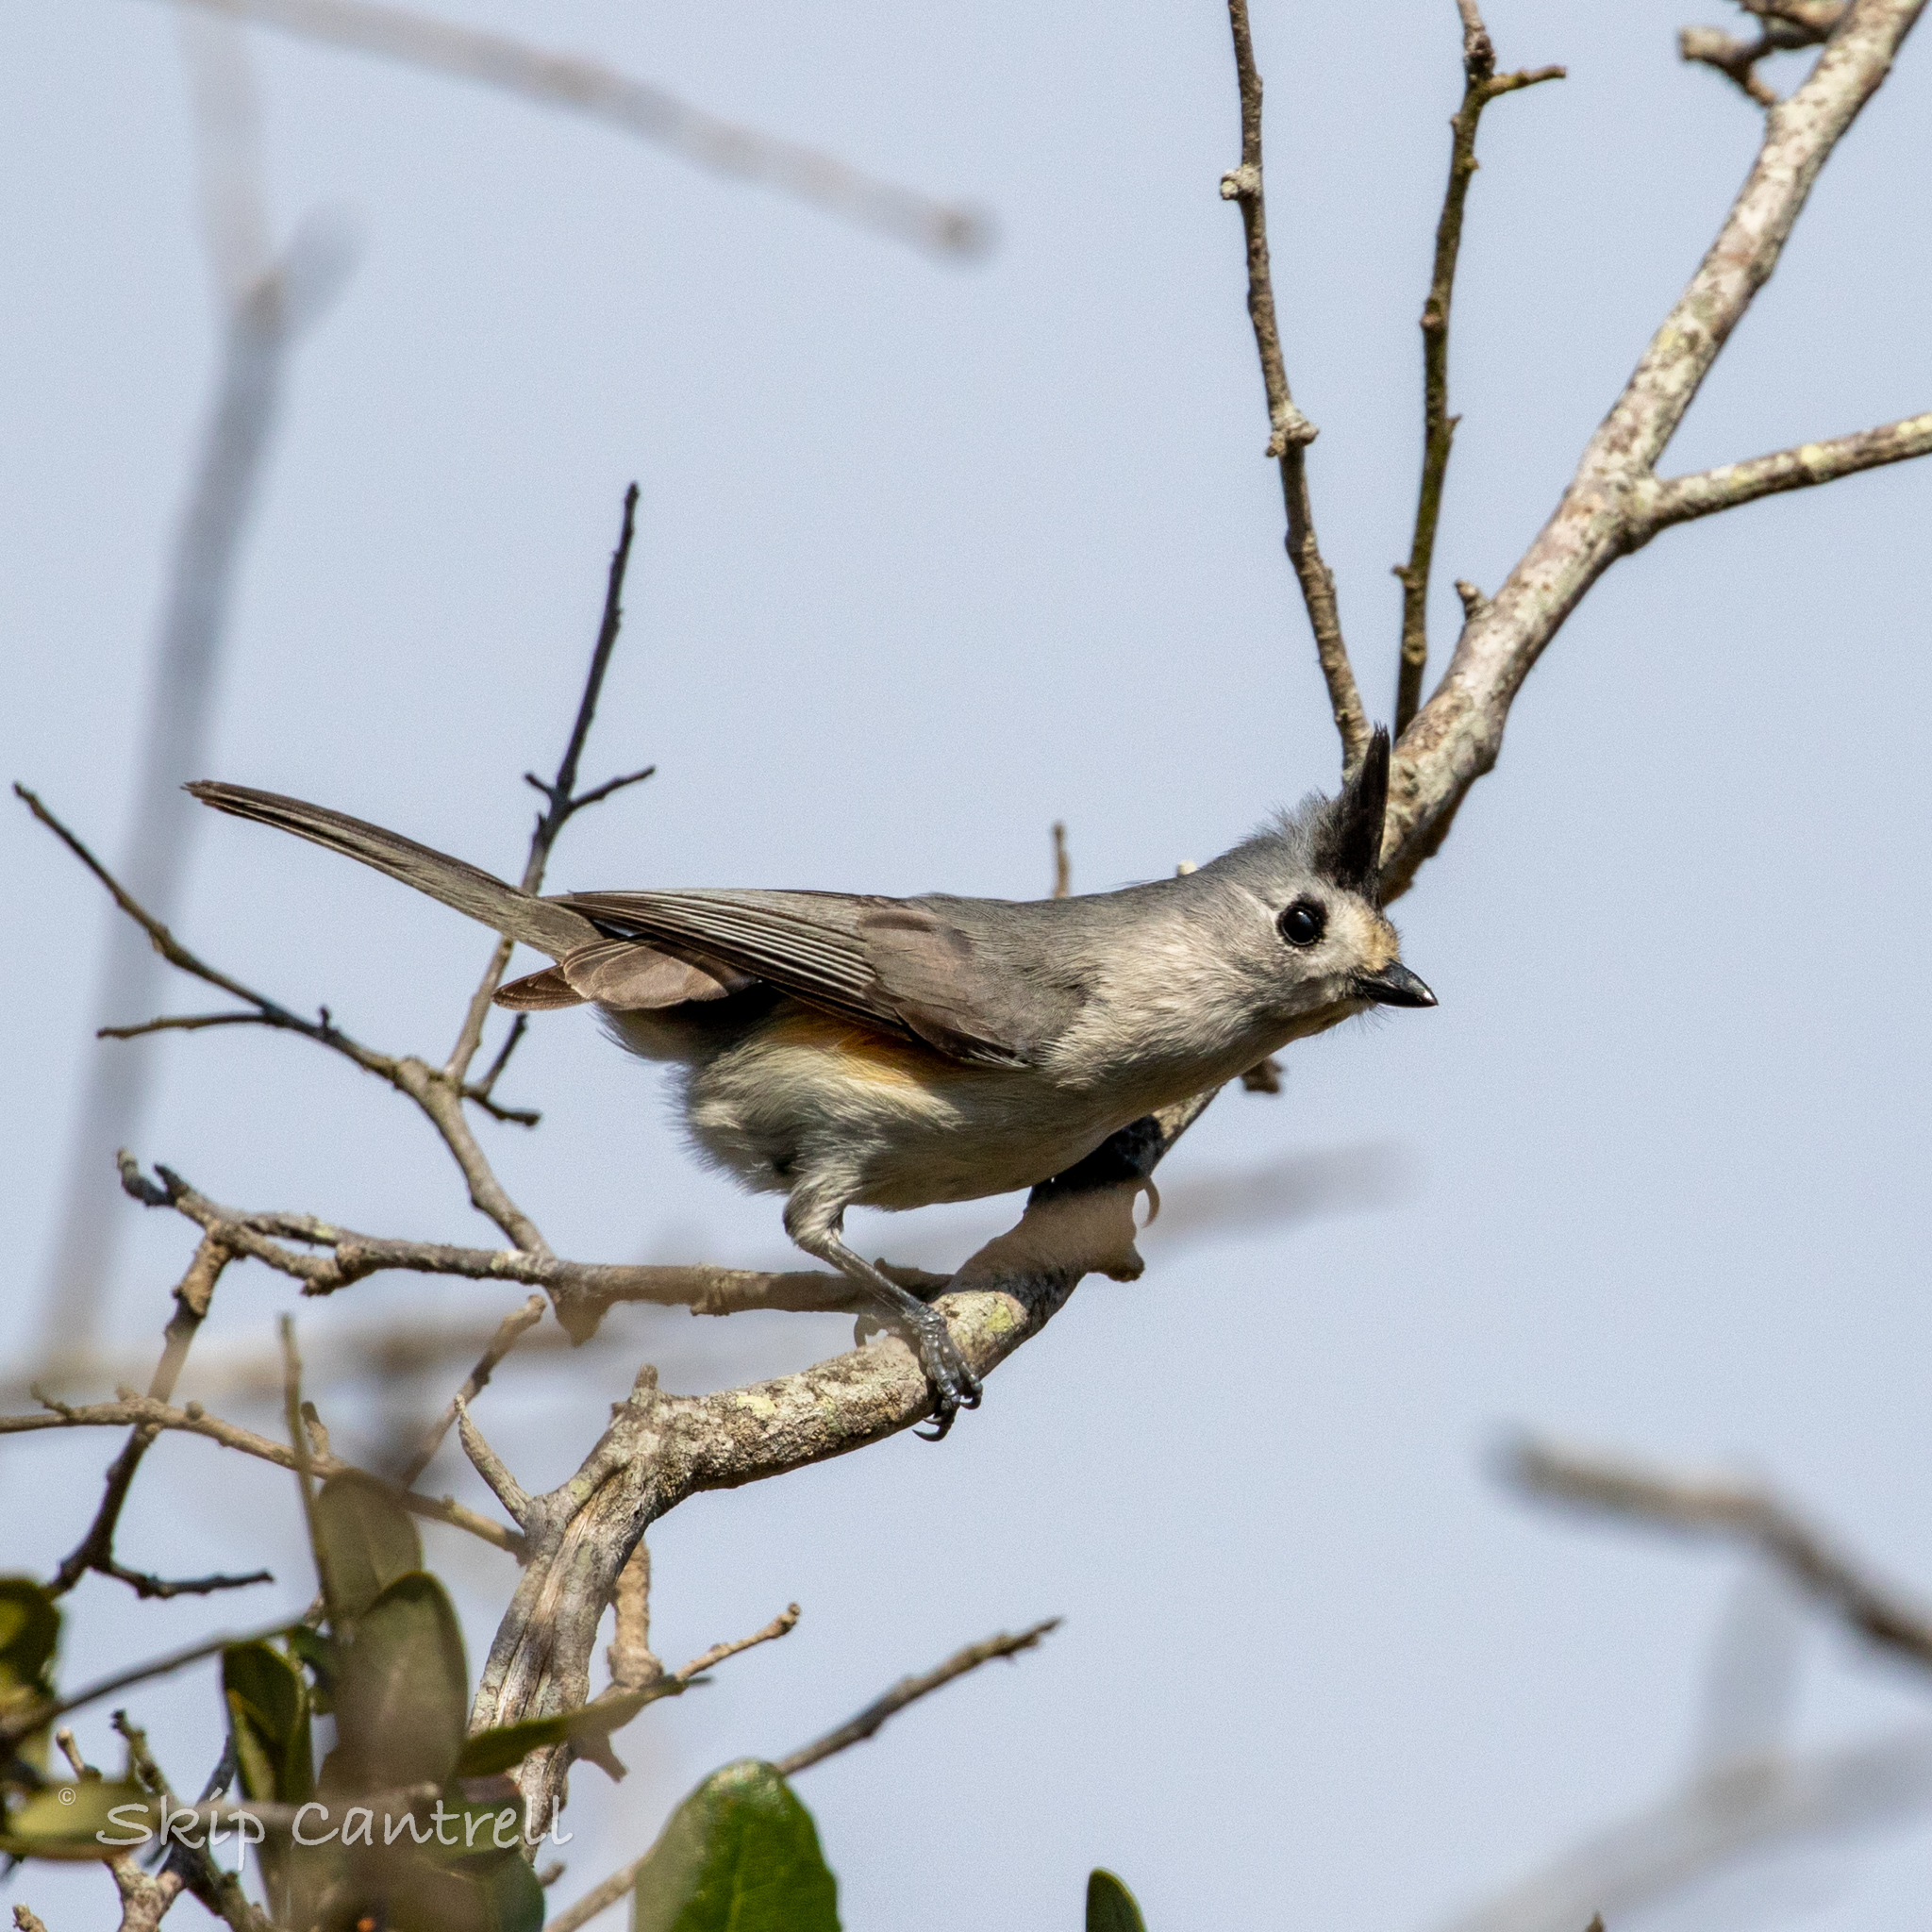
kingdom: Animalia
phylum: Chordata
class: Aves
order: Passeriformes
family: Paridae
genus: Baeolophus
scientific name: Baeolophus atricristatus
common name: Black-crested titmouse
